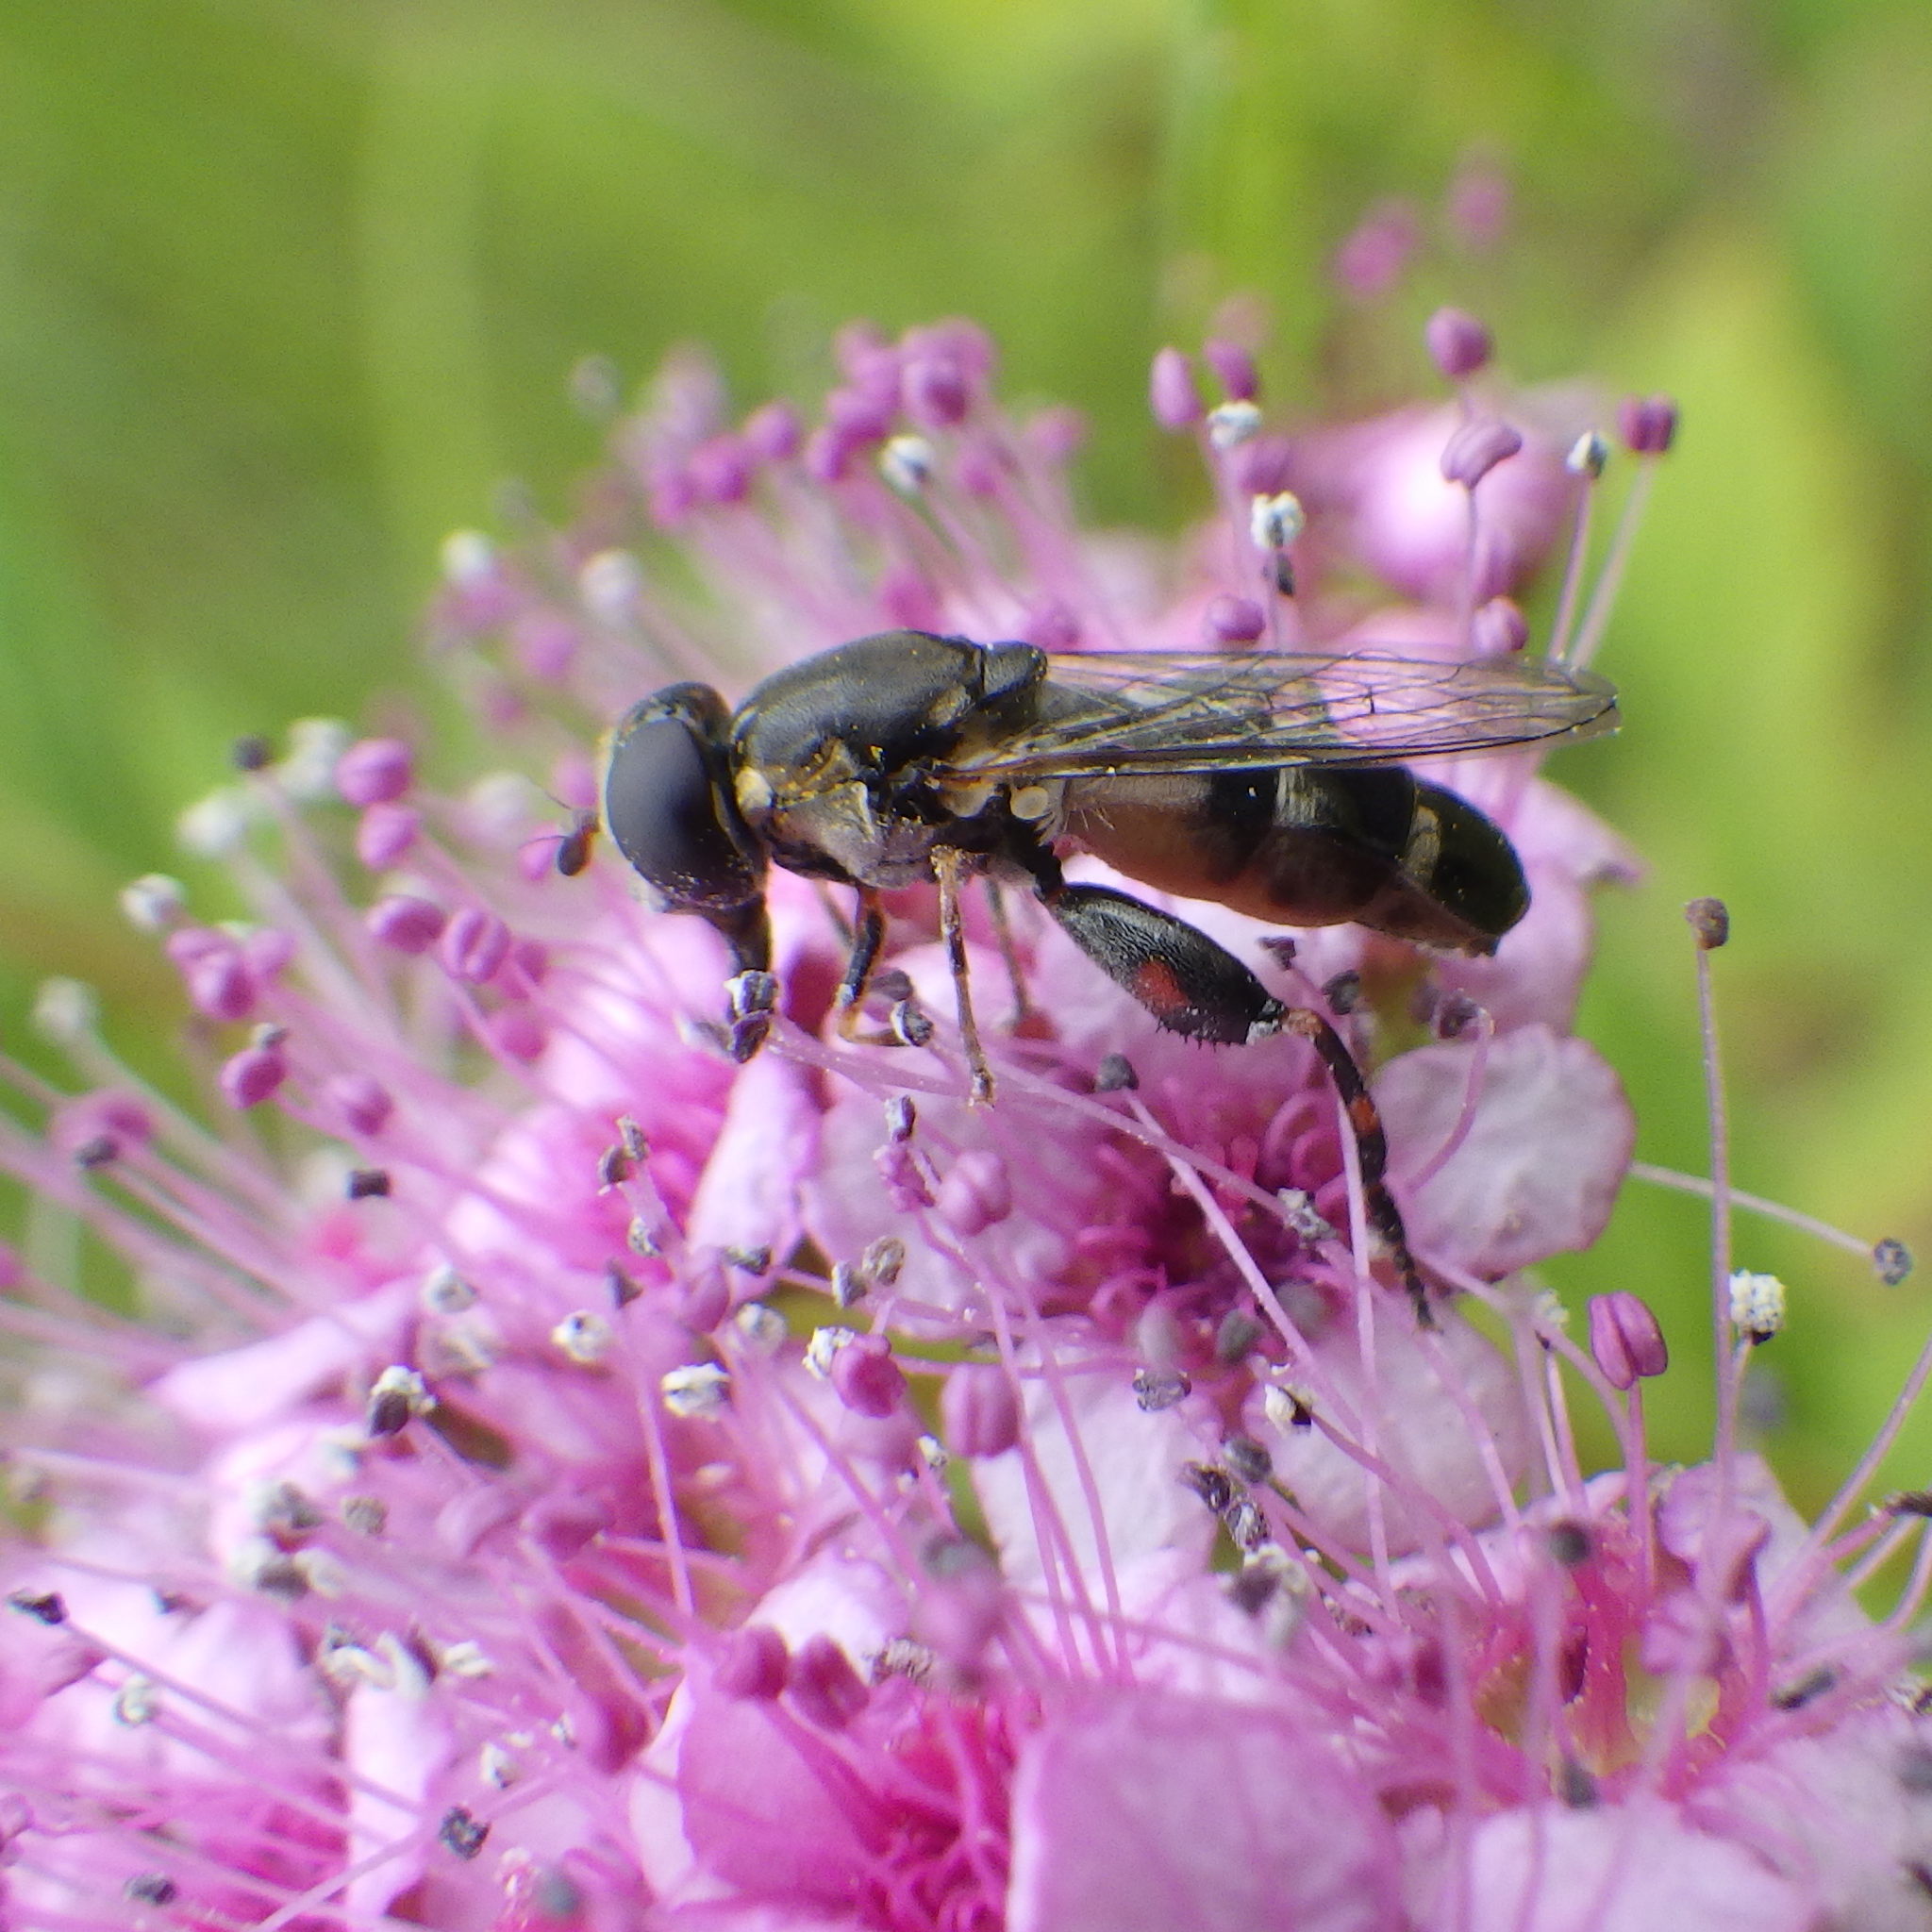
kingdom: Animalia
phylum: Arthropoda
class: Insecta
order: Diptera
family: Syrphidae
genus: Syritta
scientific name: Syritta pipiens
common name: Hover fly
